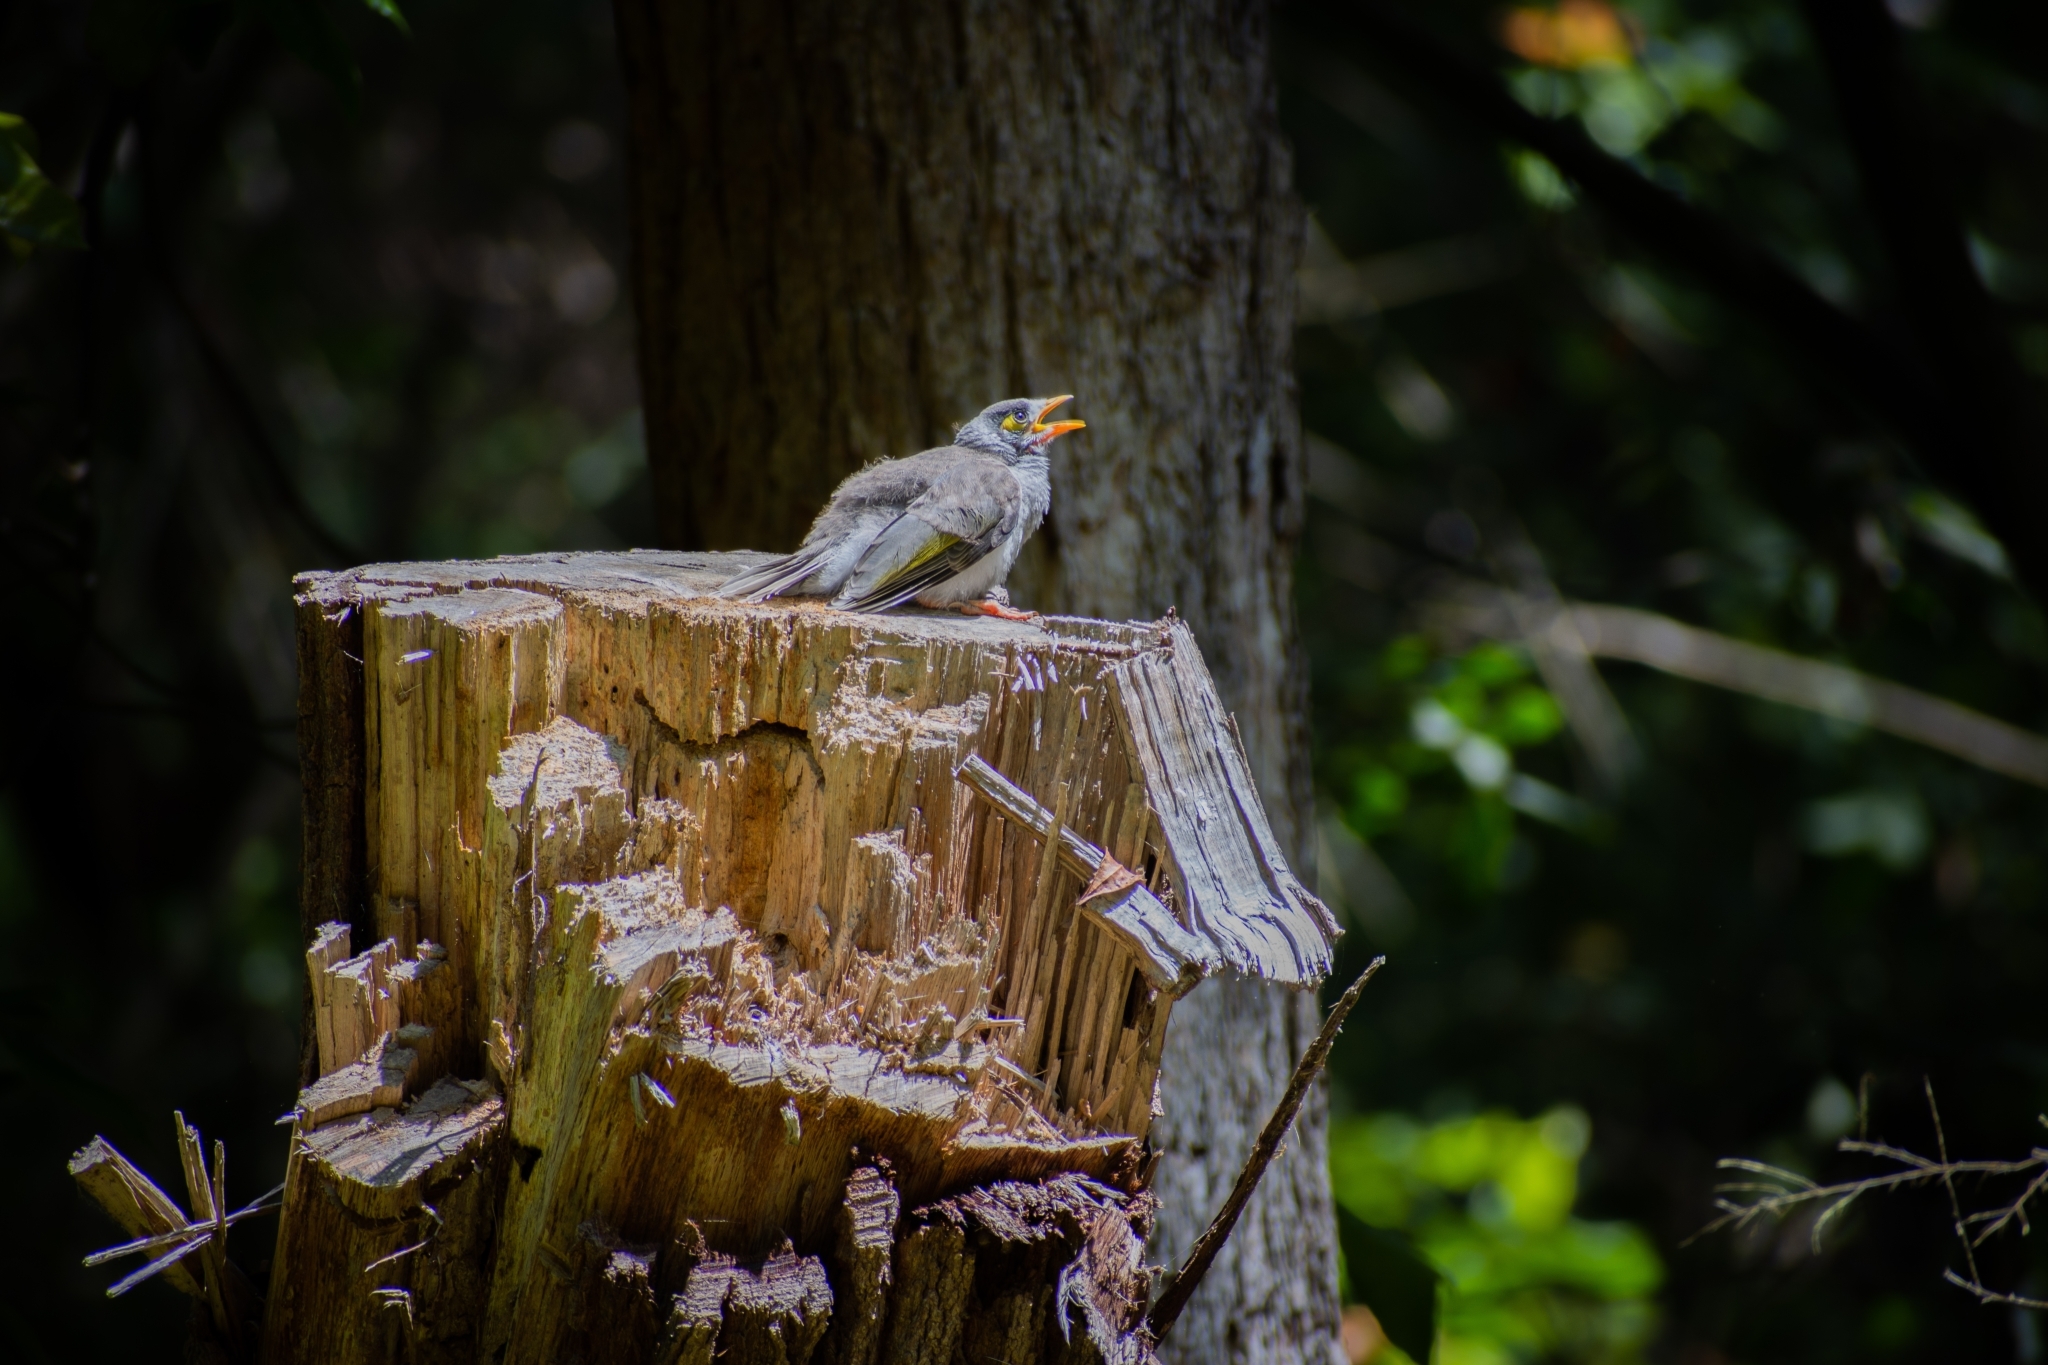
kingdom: Animalia
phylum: Chordata
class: Aves
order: Passeriformes
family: Meliphagidae
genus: Manorina
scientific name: Manorina melanocephala
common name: Noisy miner
